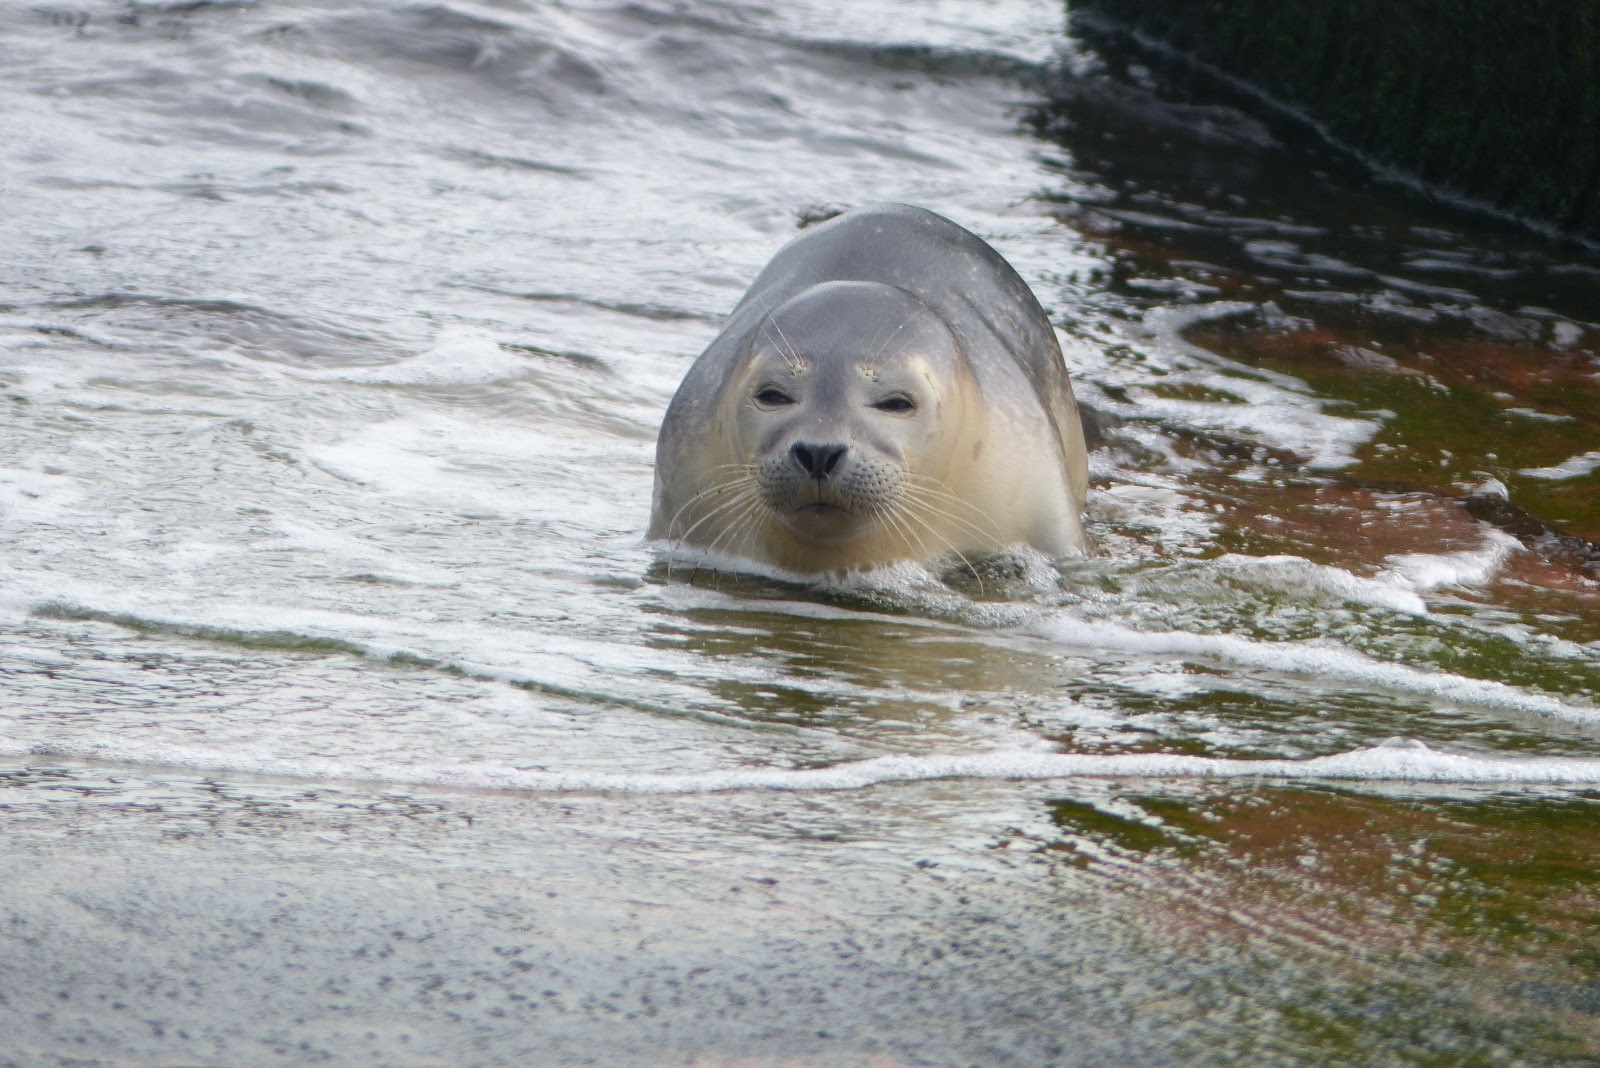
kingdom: Animalia
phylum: Chordata
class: Mammalia
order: Carnivora
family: Phocidae
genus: Phoca
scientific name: Phoca vitulina
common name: Harbor seal
